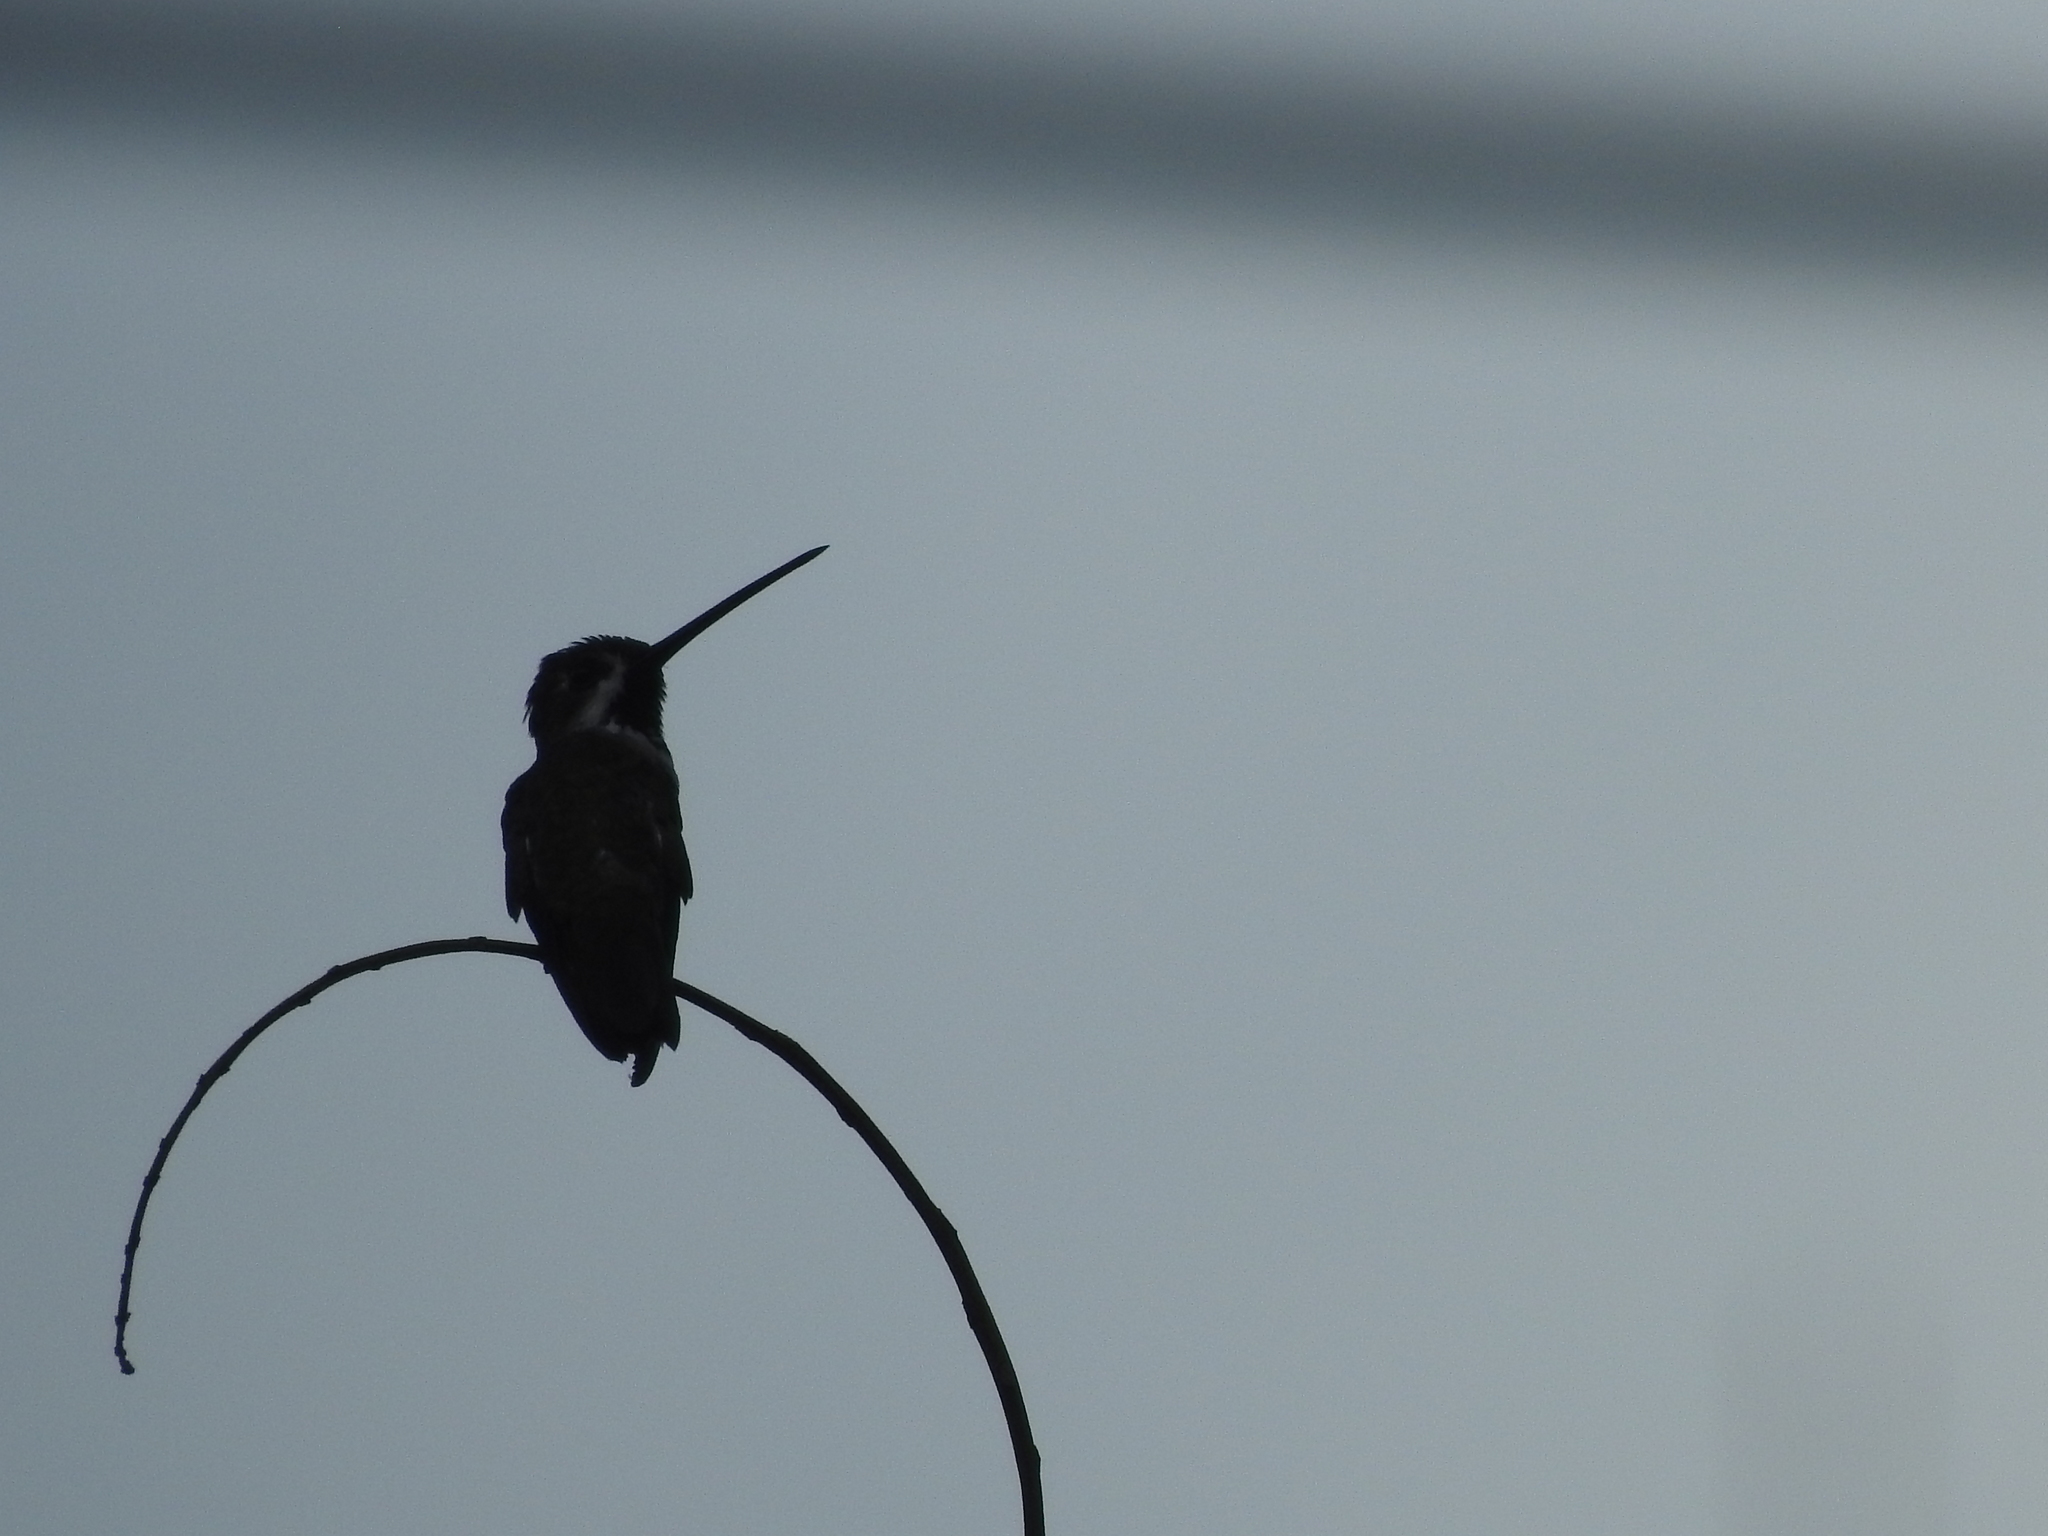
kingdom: Animalia
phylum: Chordata
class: Aves
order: Apodiformes
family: Trochilidae
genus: Heliomaster
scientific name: Heliomaster longirostris
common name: Long-billed starthroat
